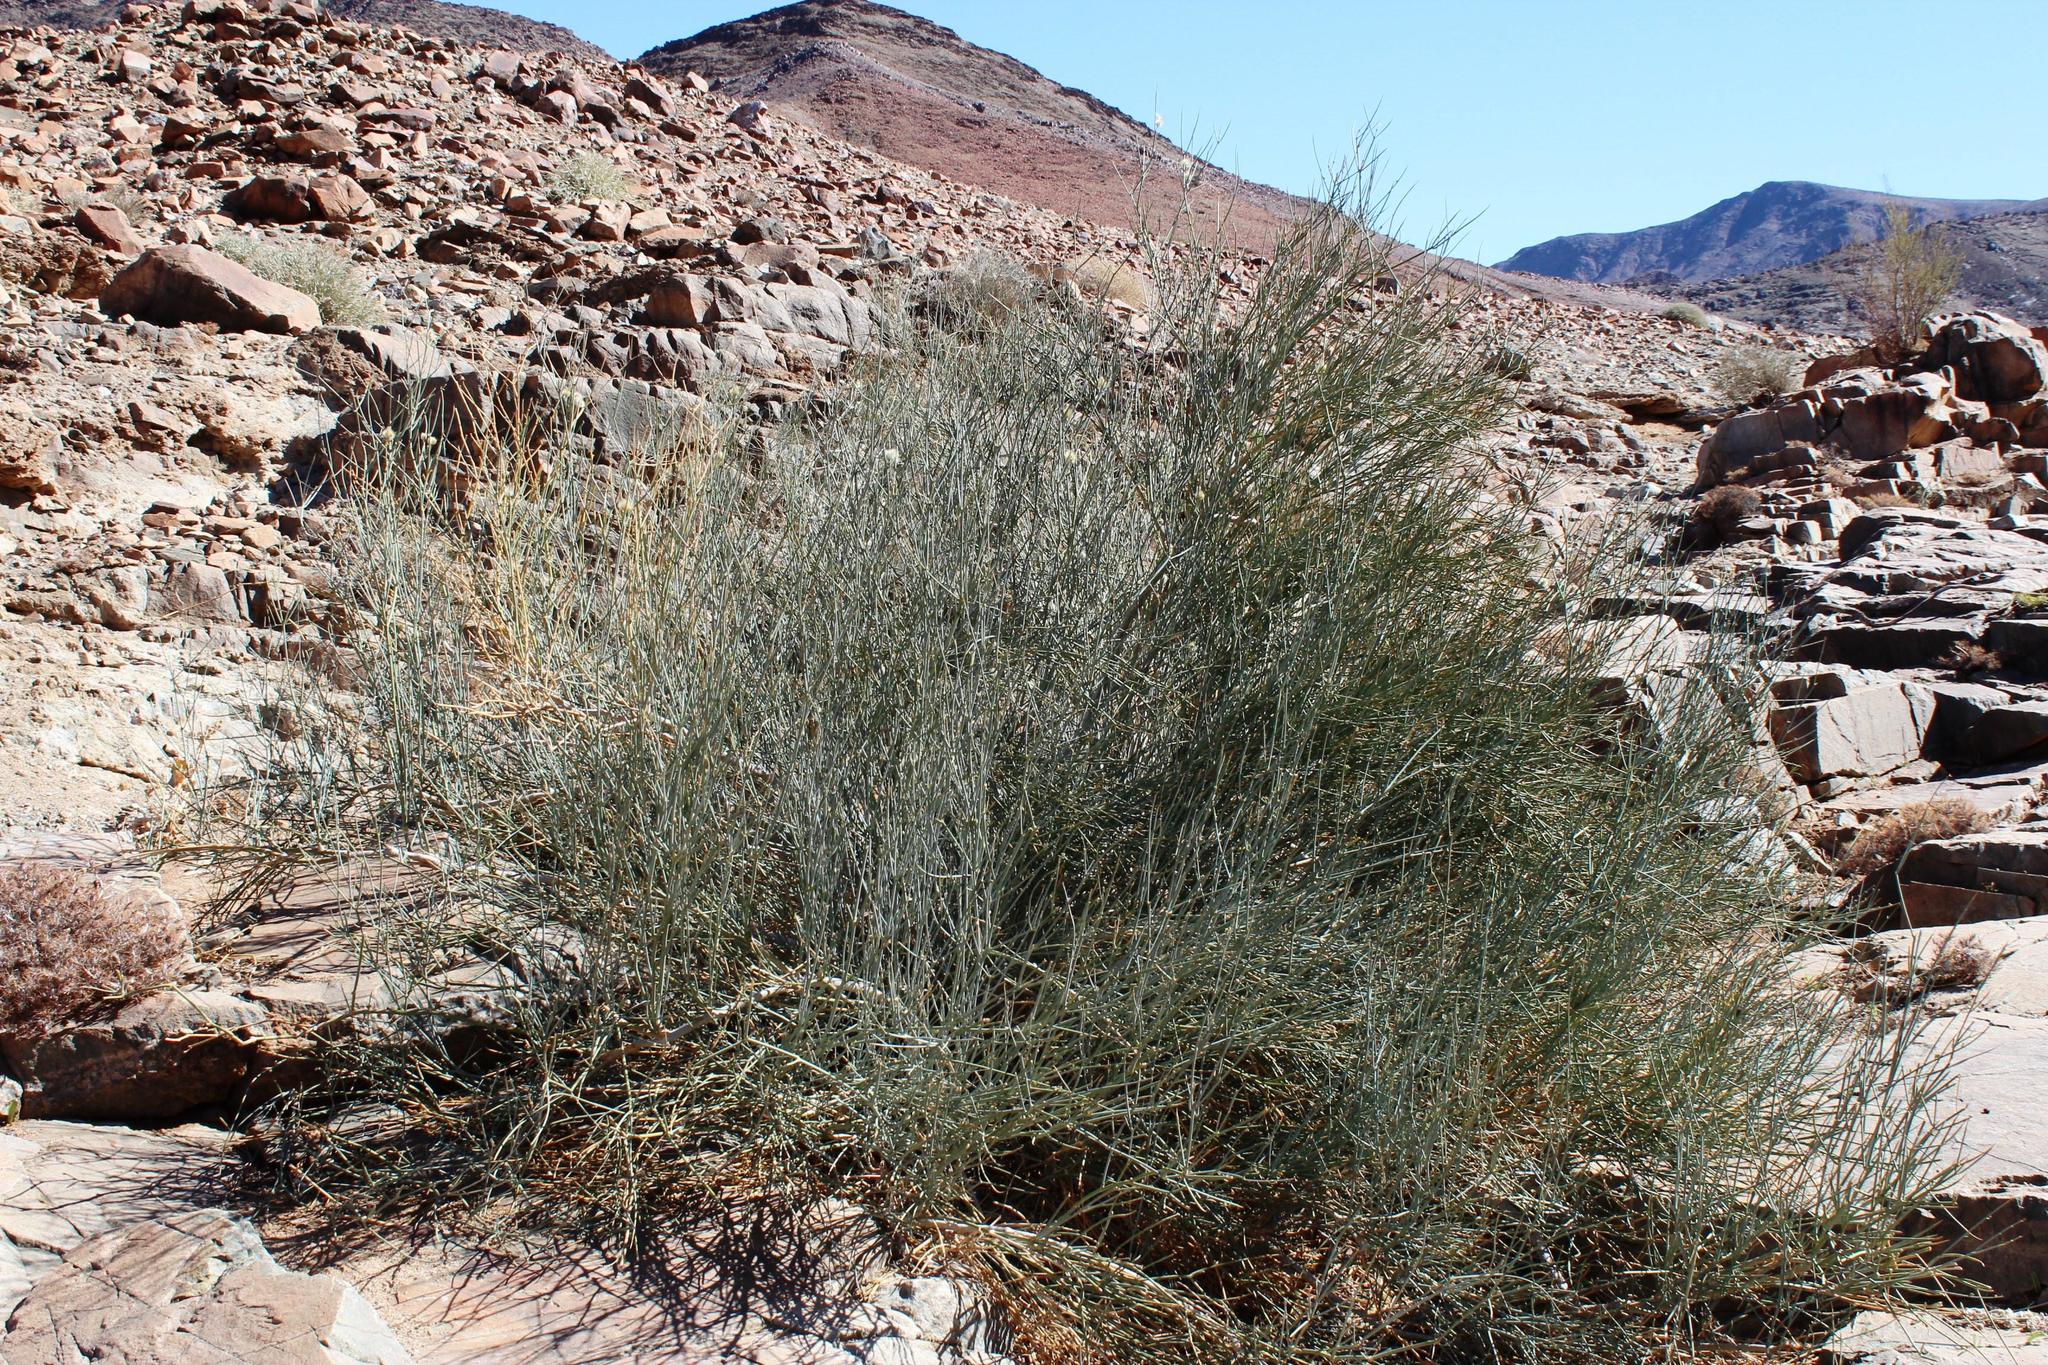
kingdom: Plantae
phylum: Tracheophyta
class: Magnoliopsida
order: Zygophyllales
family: Zygophyllaceae
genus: Sisyndite
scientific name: Sisyndite spartea
